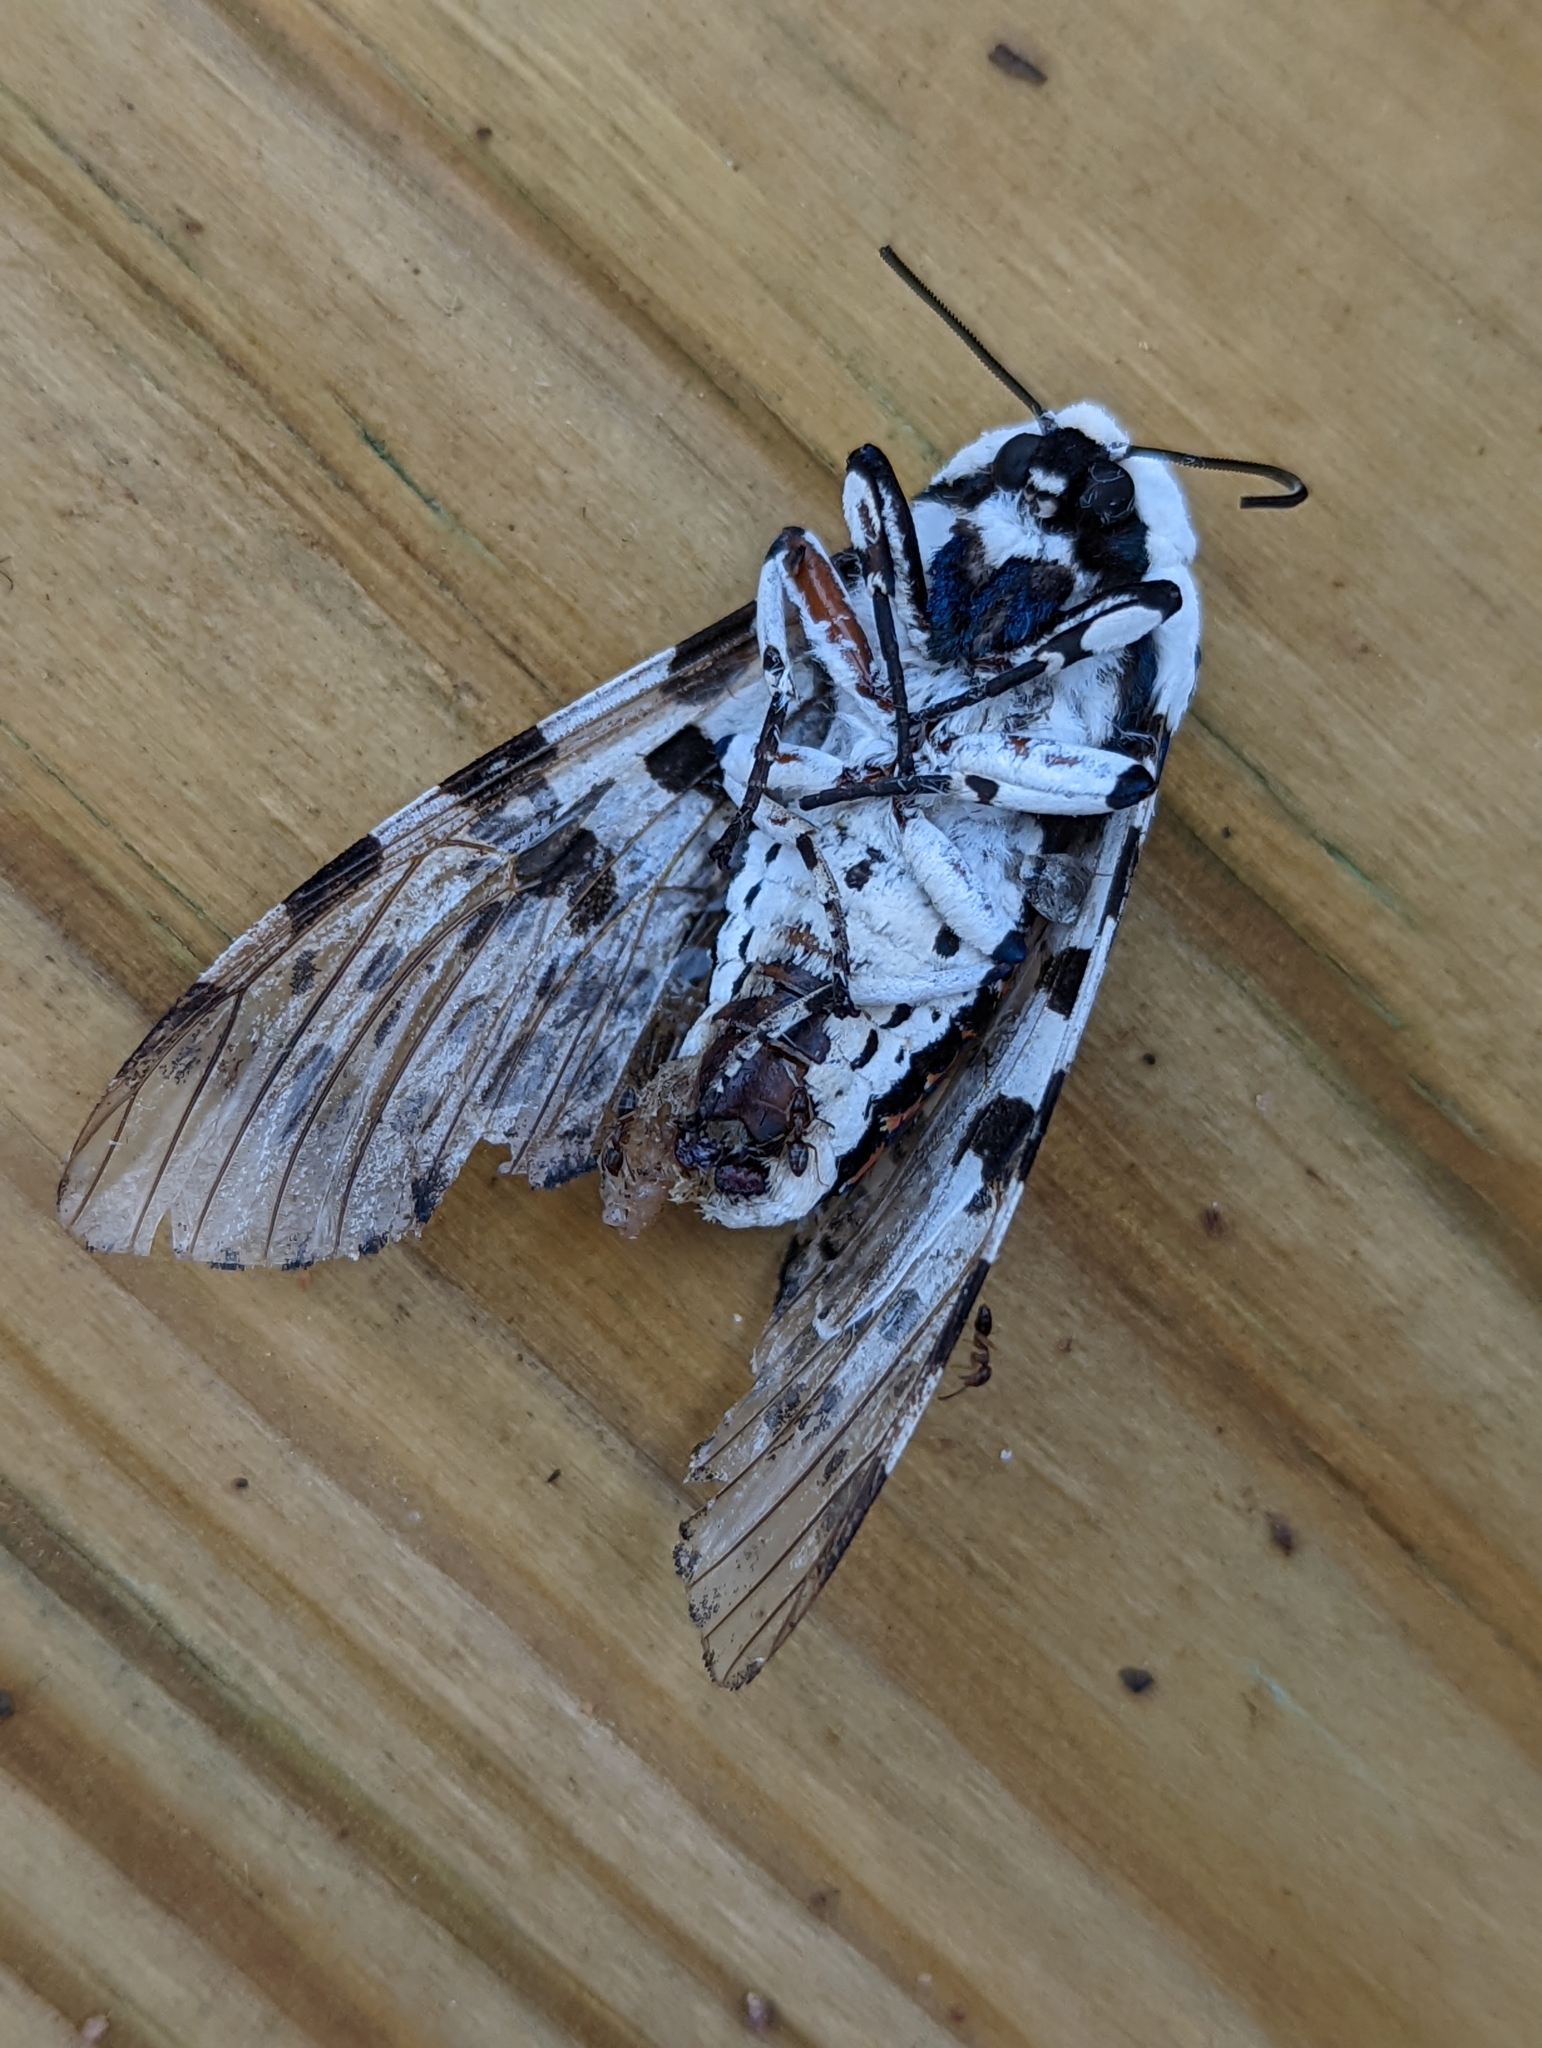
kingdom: Animalia
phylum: Arthropoda
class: Insecta
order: Lepidoptera
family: Erebidae
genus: Hypercompe
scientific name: Hypercompe scribonia
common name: Giant leopard moth
